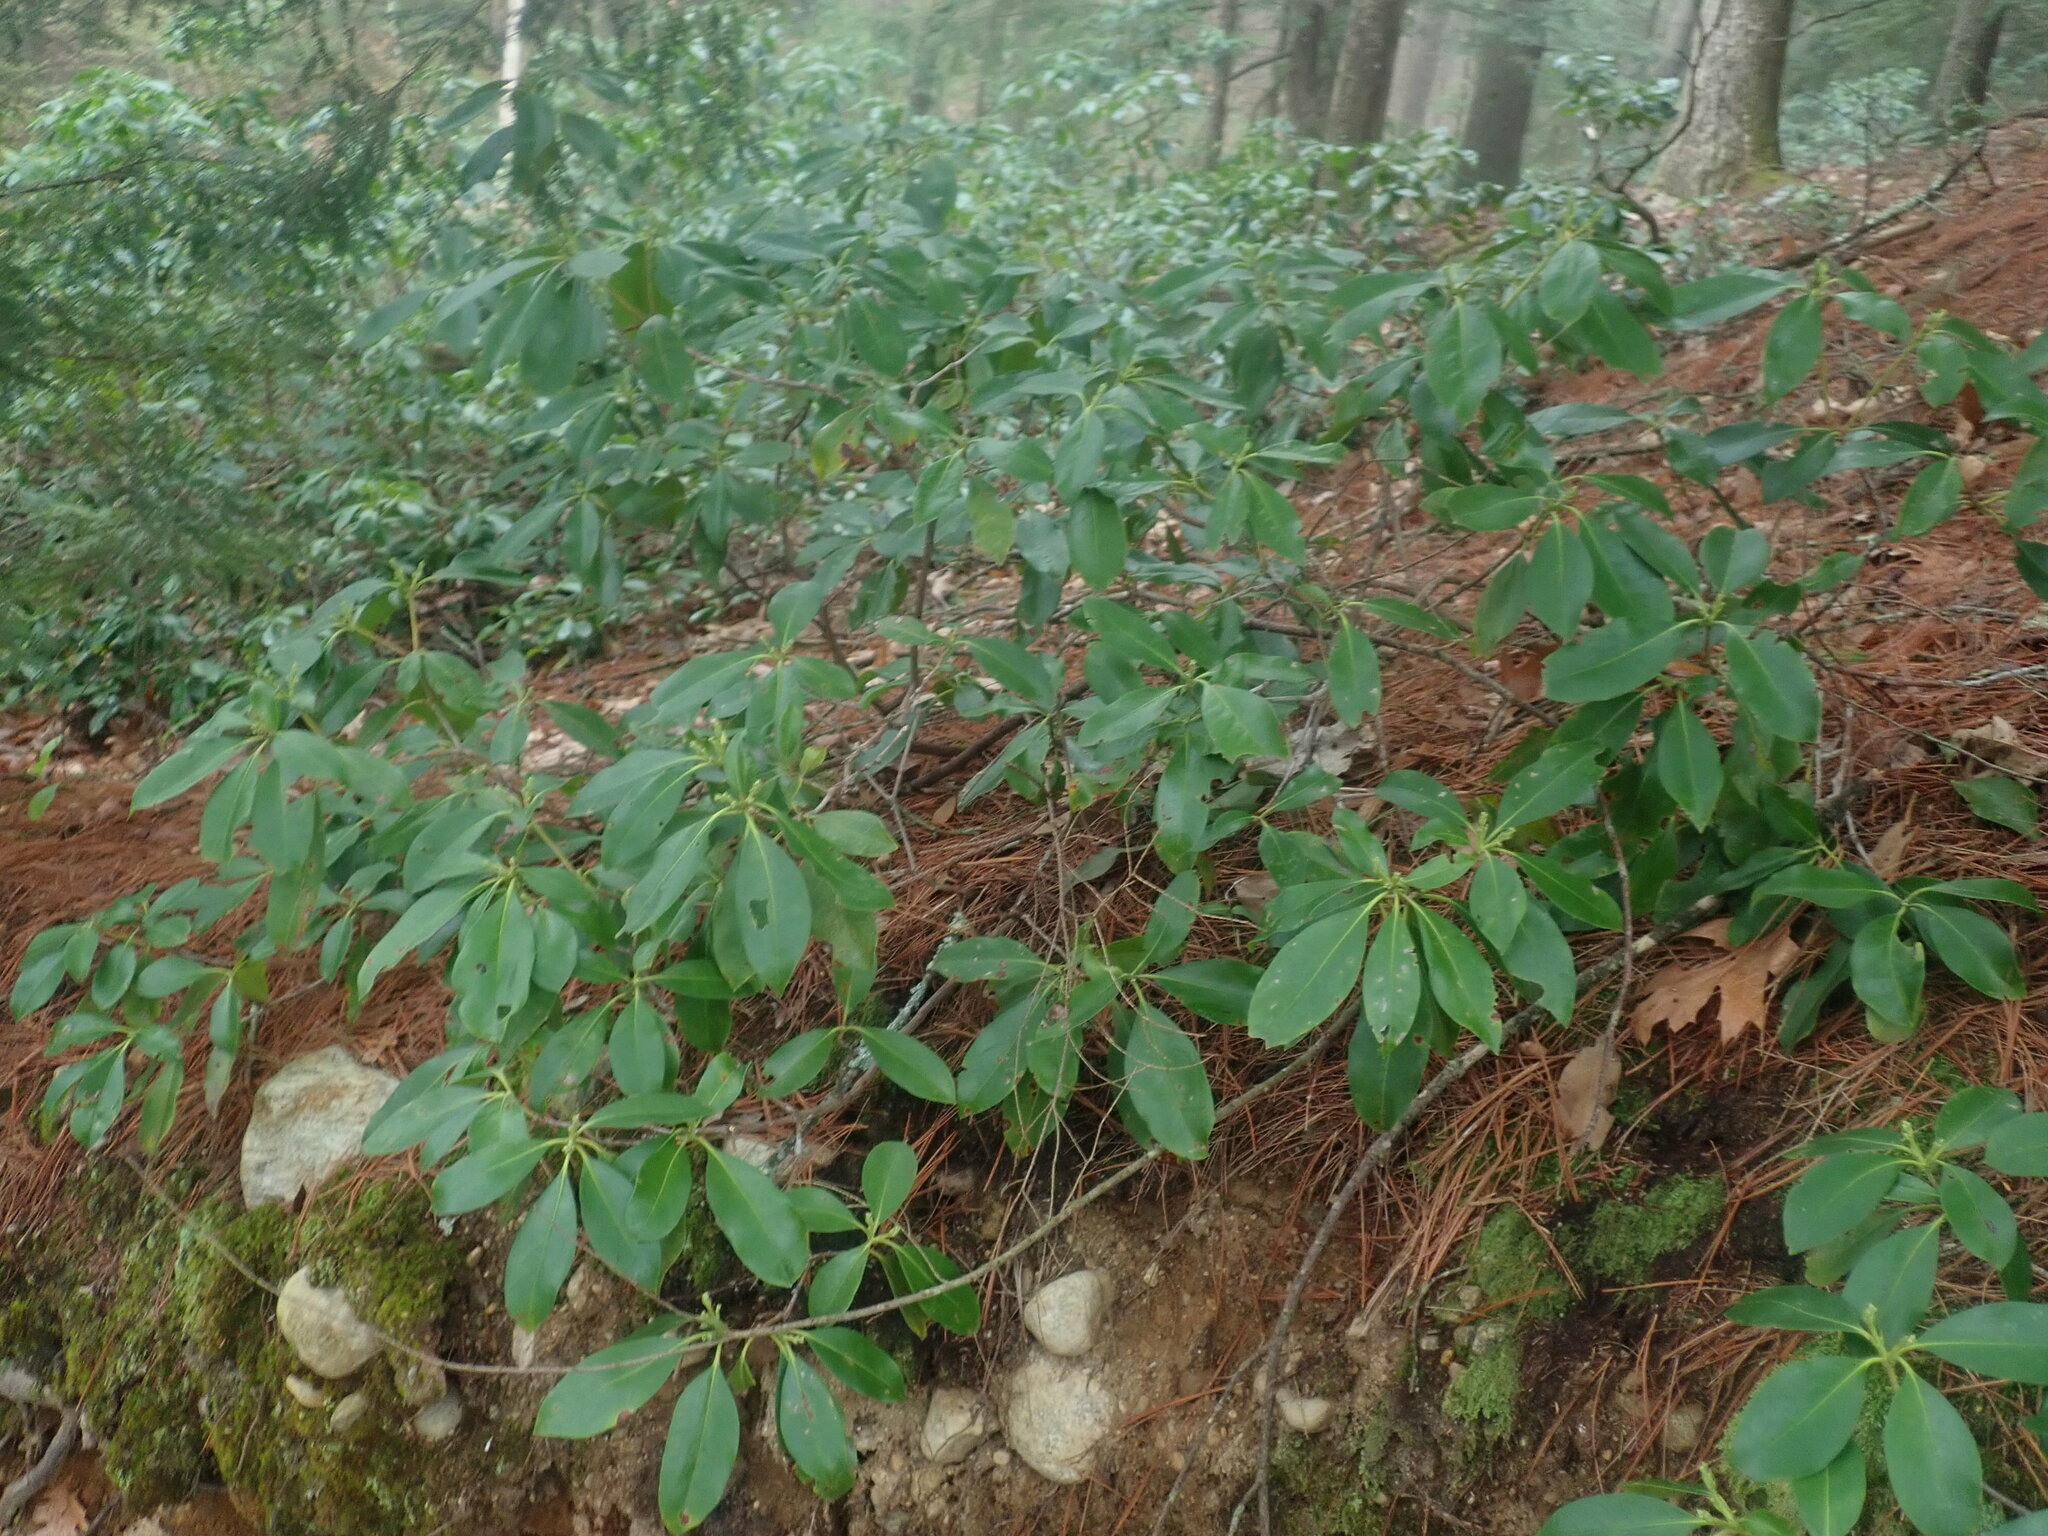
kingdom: Plantae
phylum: Tracheophyta
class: Magnoliopsida
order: Ericales
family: Ericaceae
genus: Kalmia
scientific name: Kalmia latifolia
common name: Mountain-laurel
